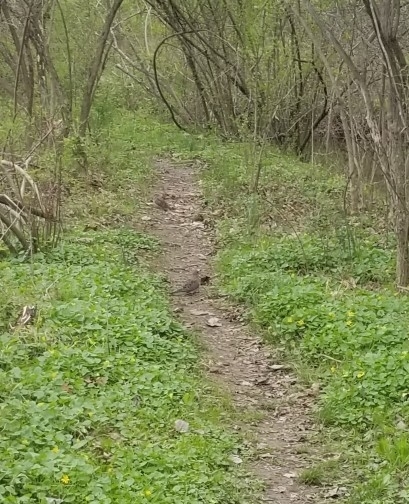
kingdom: Animalia
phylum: Chordata
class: Aves
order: Columbiformes
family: Columbidae
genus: Zenaida
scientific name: Zenaida macroura
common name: Mourning dove
